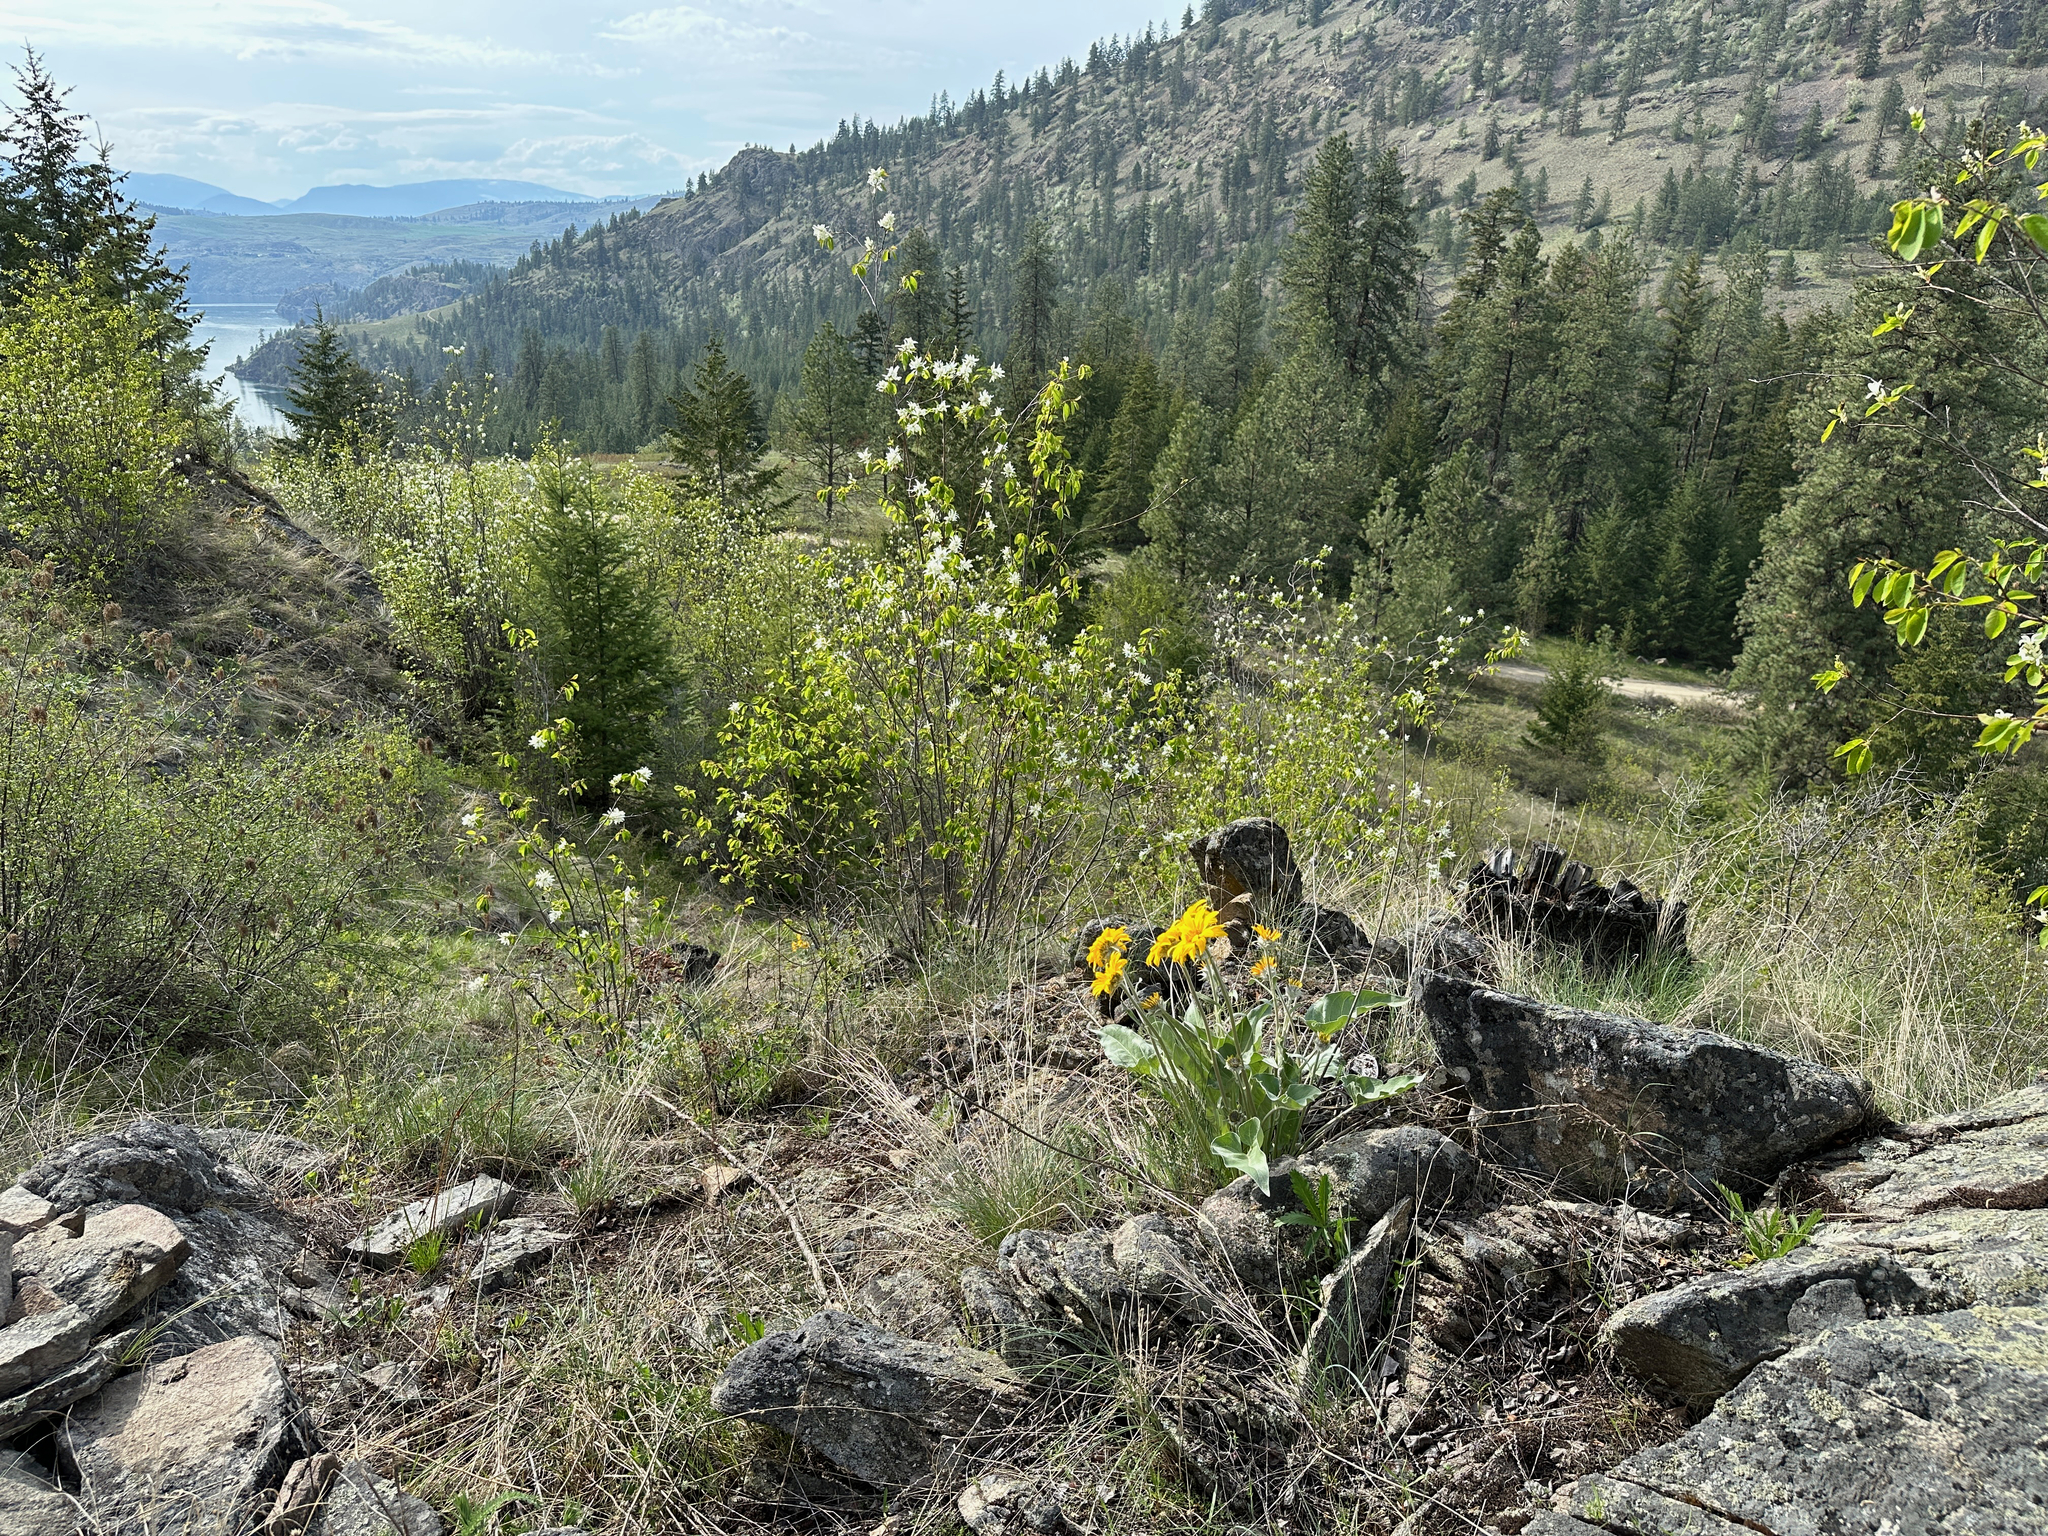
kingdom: Plantae
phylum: Tracheophyta
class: Magnoliopsida
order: Asterales
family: Asteraceae
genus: Wyethia
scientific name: Wyethia sagittata
